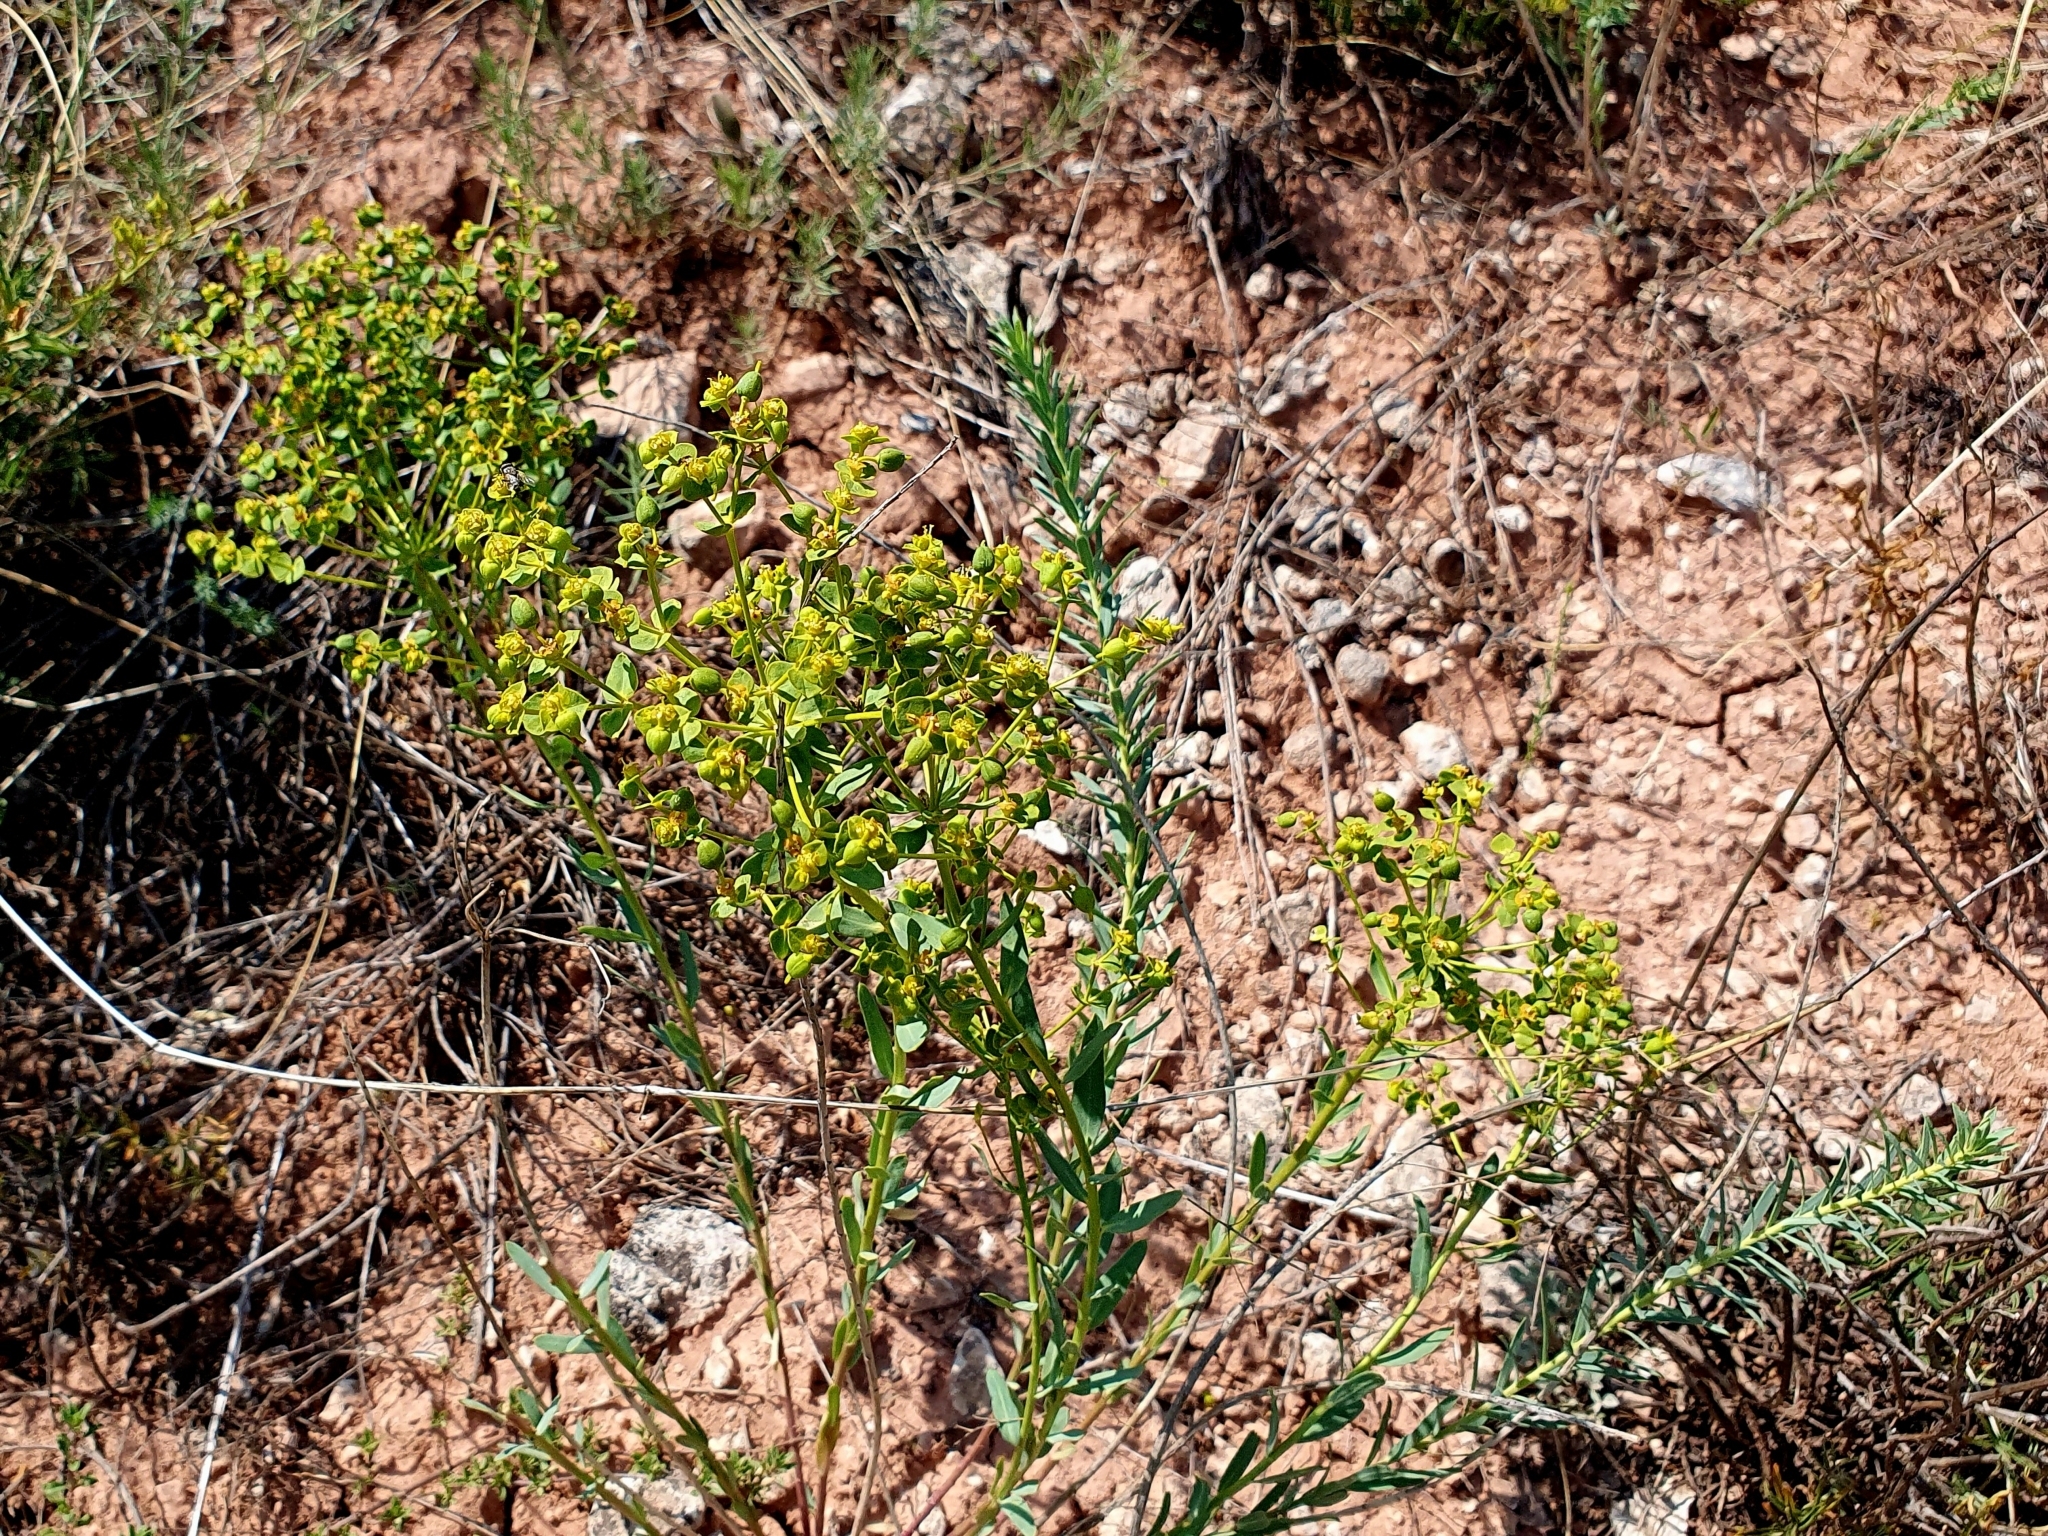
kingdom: Plantae
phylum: Tracheophyta
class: Magnoliopsida
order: Malpighiales
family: Euphorbiaceae
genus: Euphorbia
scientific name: Euphorbia seguieriana
